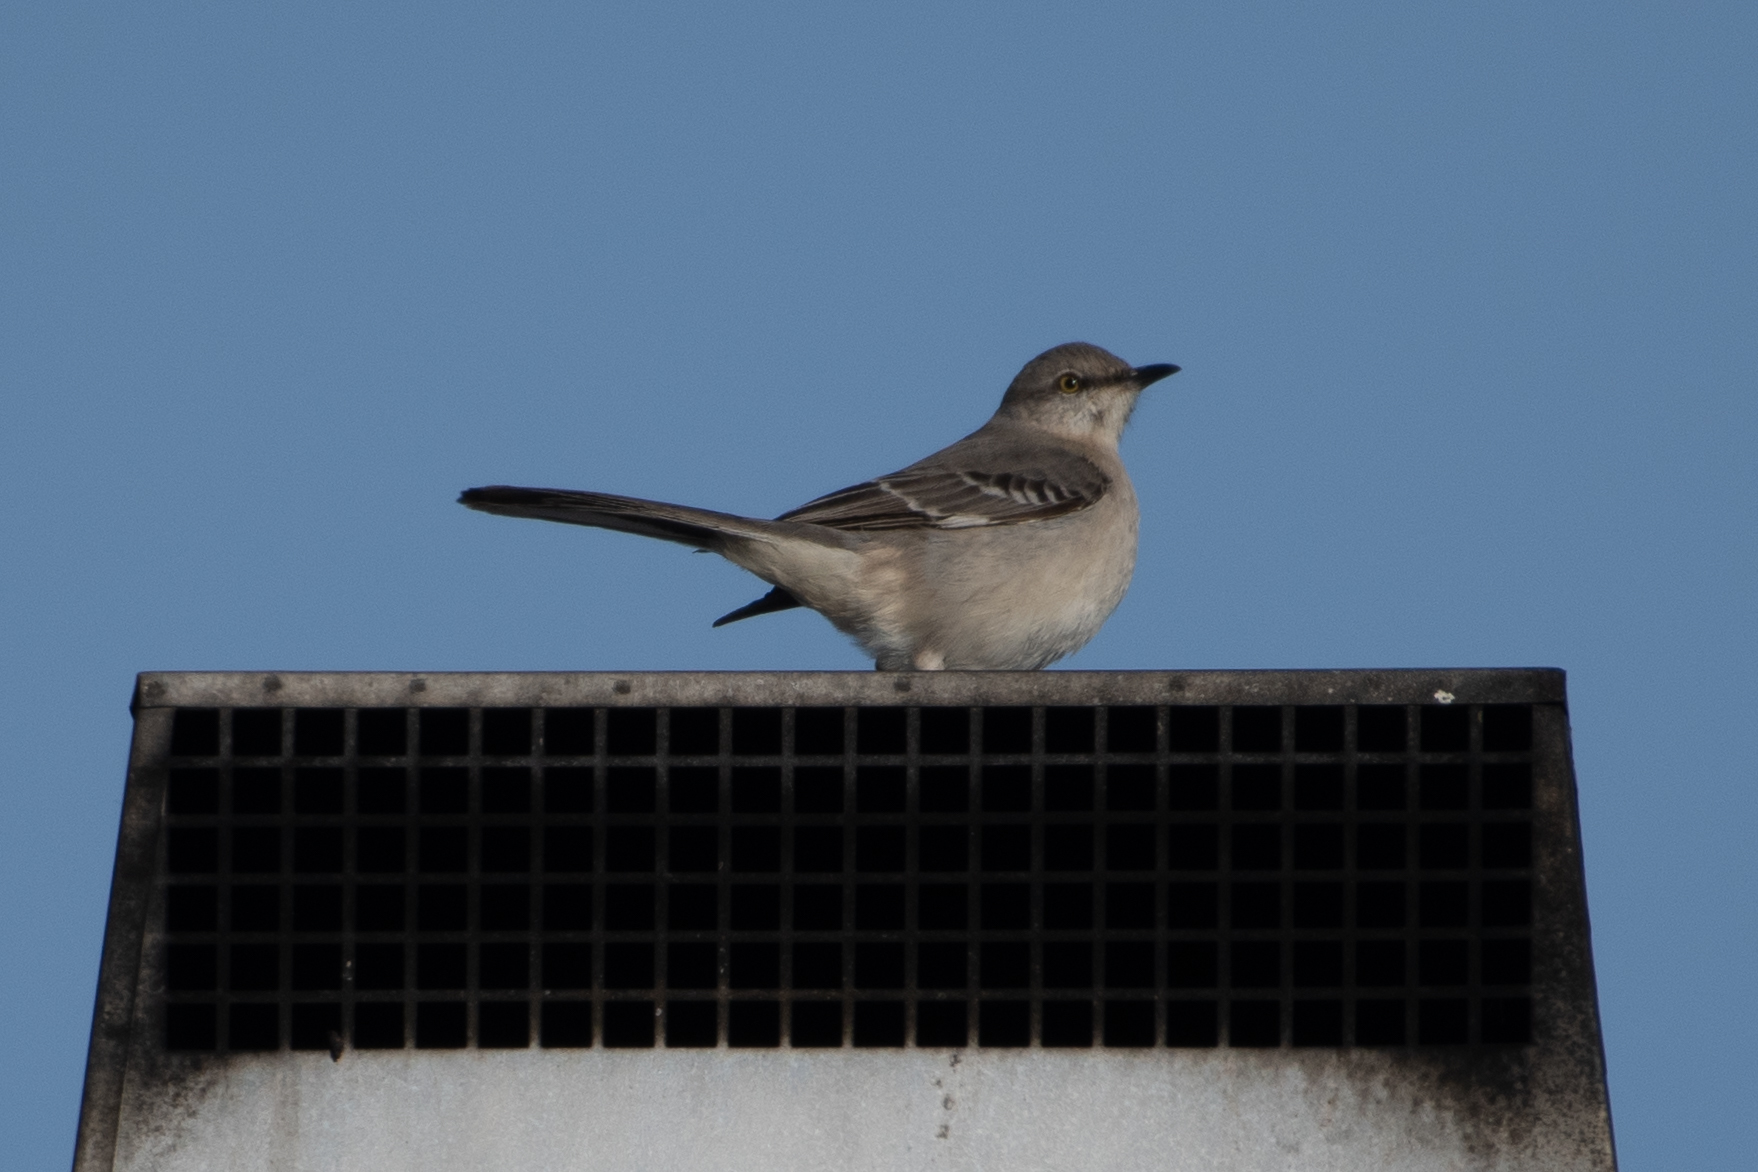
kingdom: Animalia
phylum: Chordata
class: Aves
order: Passeriformes
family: Mimidae
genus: Mimus
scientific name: Mimus polyglottos
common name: Northern mockingbird
